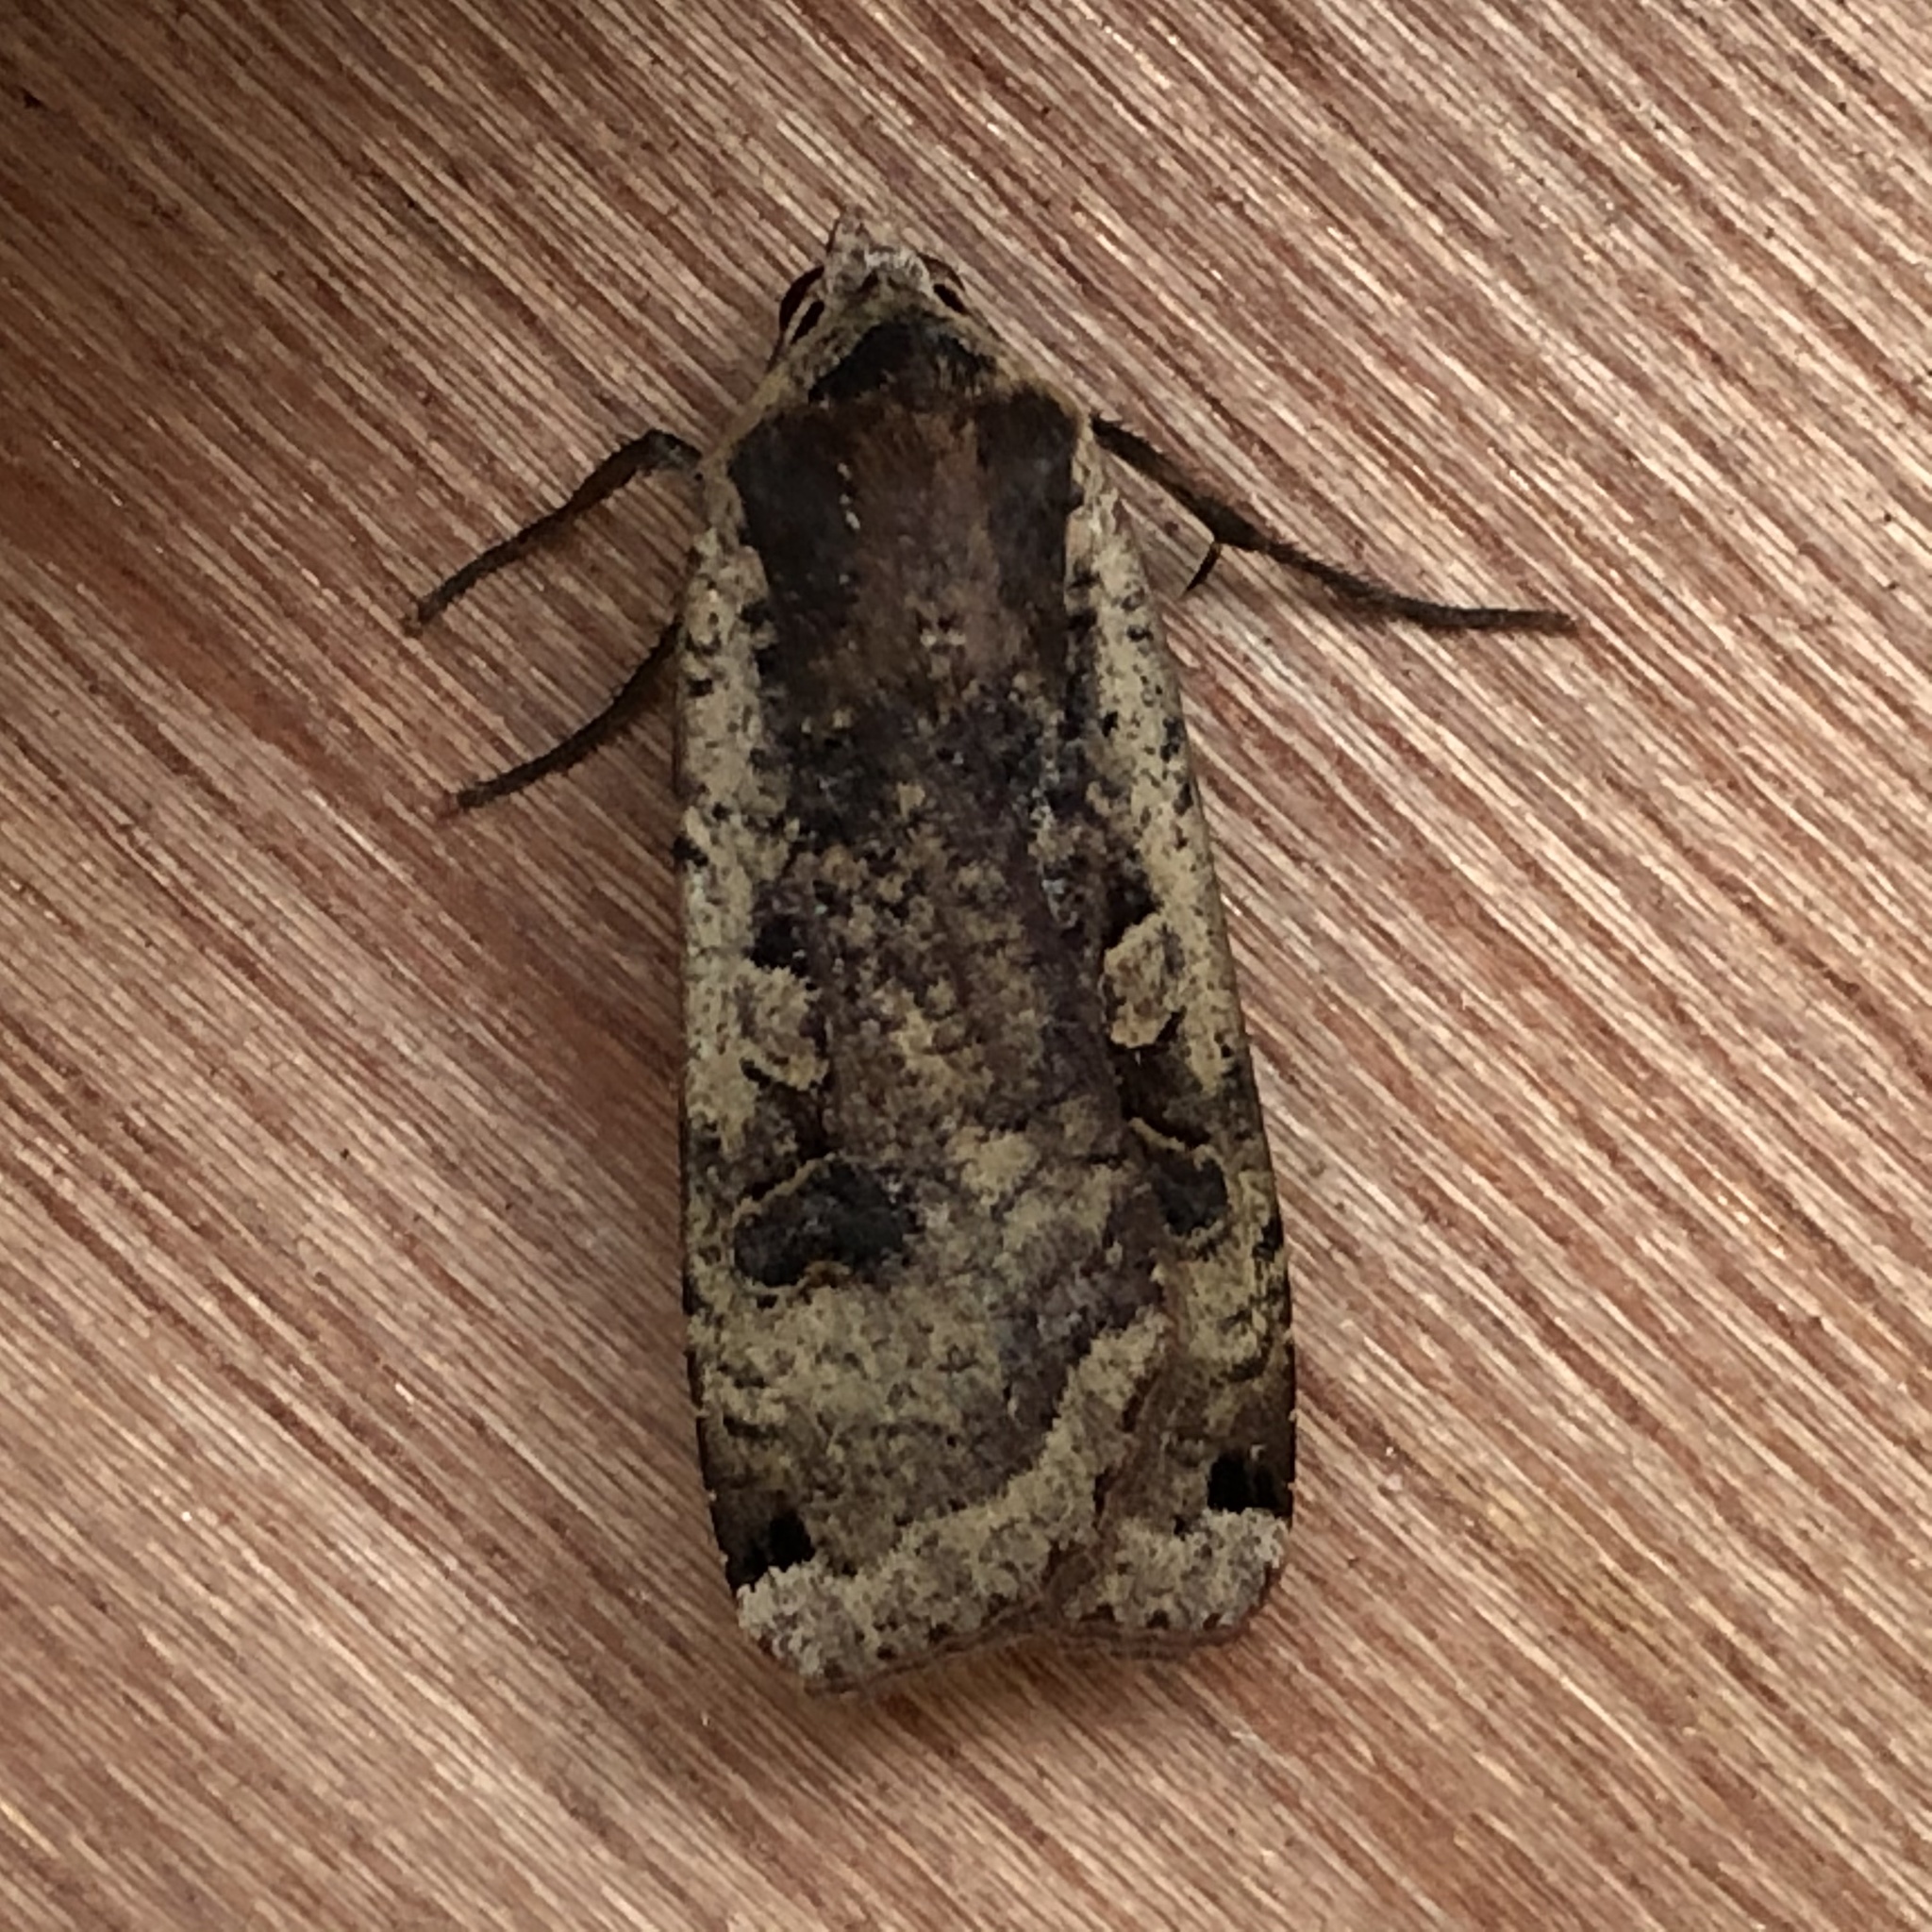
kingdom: Animalia
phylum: Arthropoda
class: Insecta
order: Lepidoptera
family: Noctuidae
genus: Noctua
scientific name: Noctua pronuba
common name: Large yellow underwing
